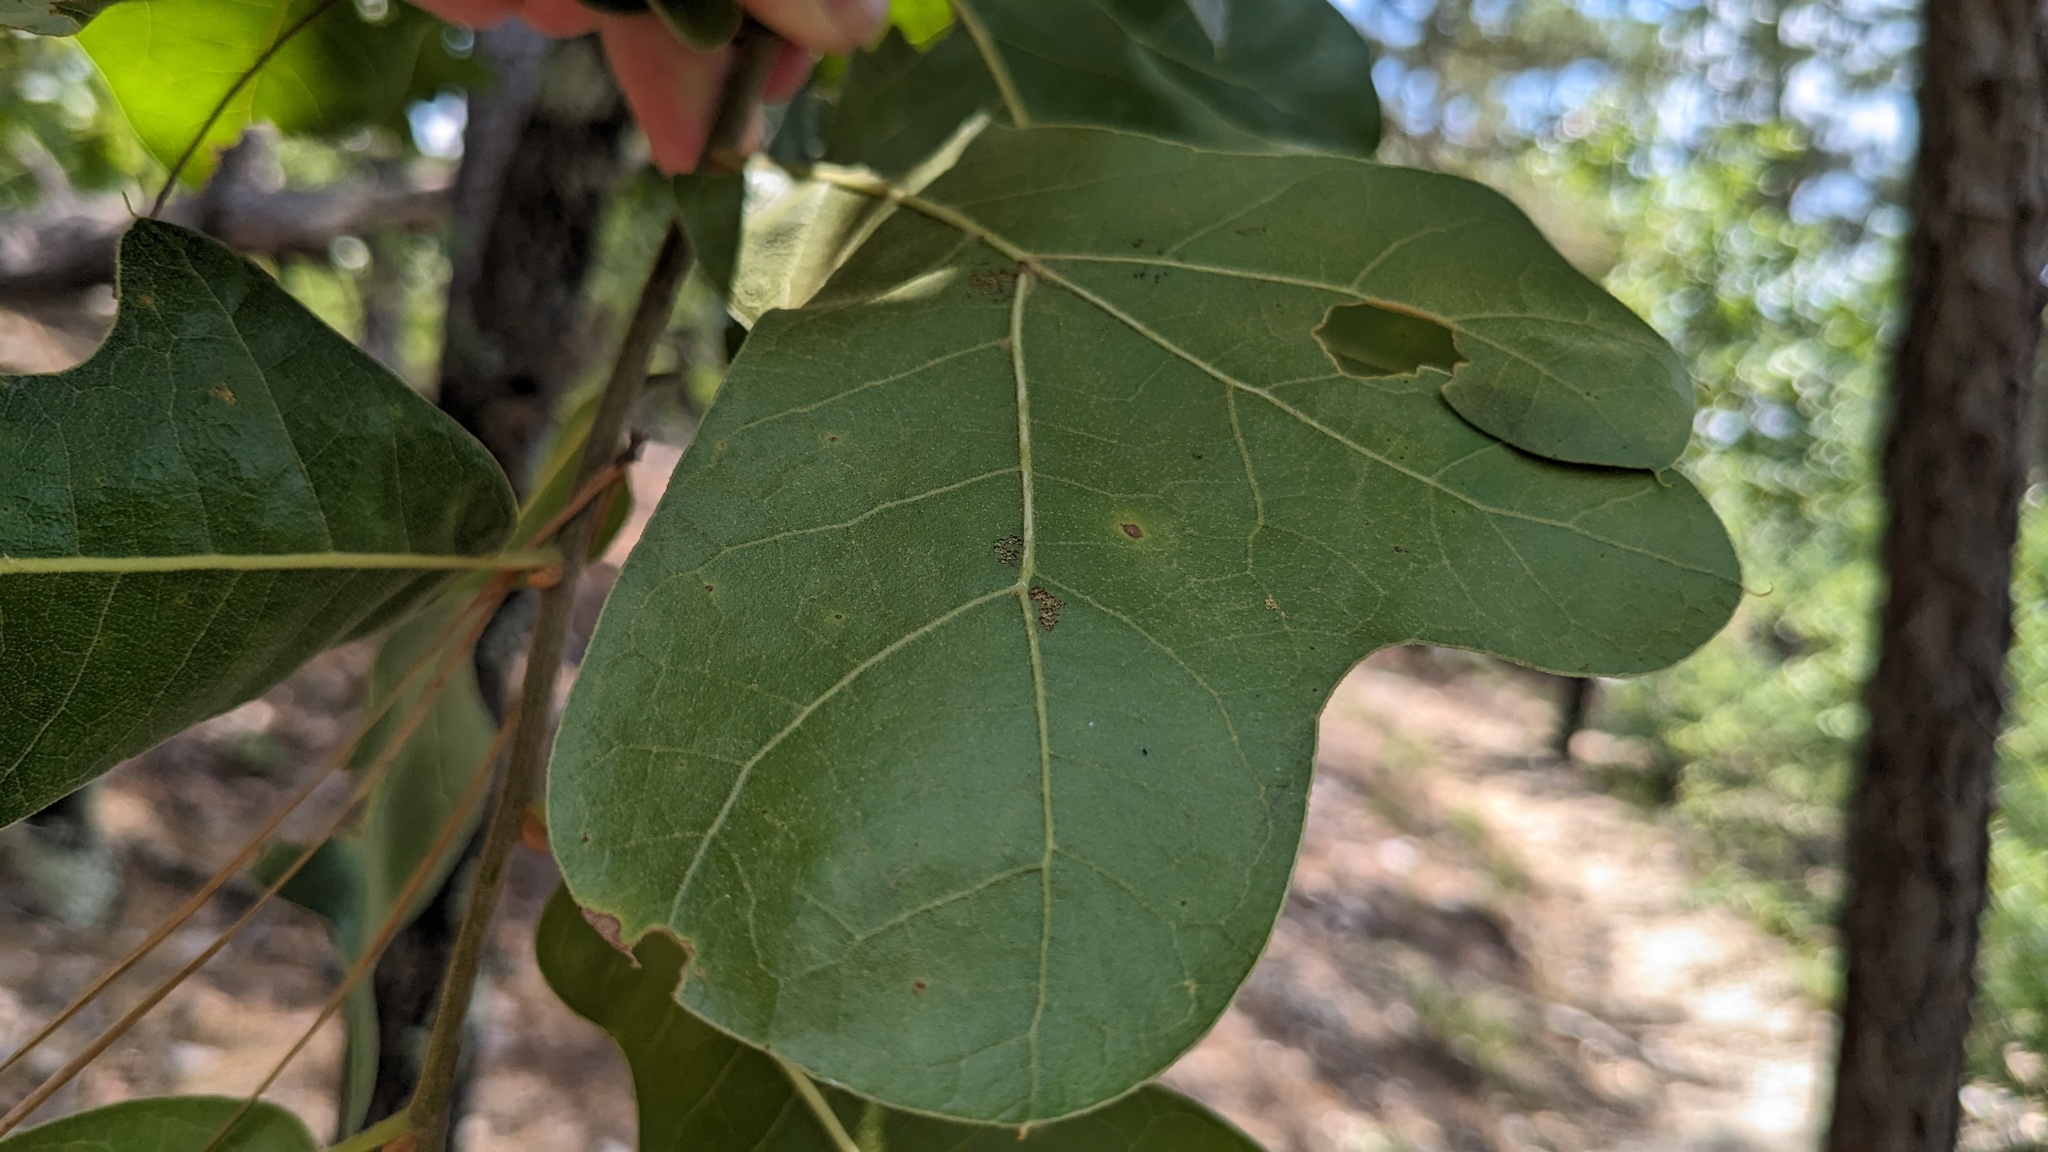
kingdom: Plantae
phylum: Tracheophyta
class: Magnoliopsida
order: Fagales
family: Fagaceae
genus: Quercus
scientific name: Quercus marilandica
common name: Blackjack oak
